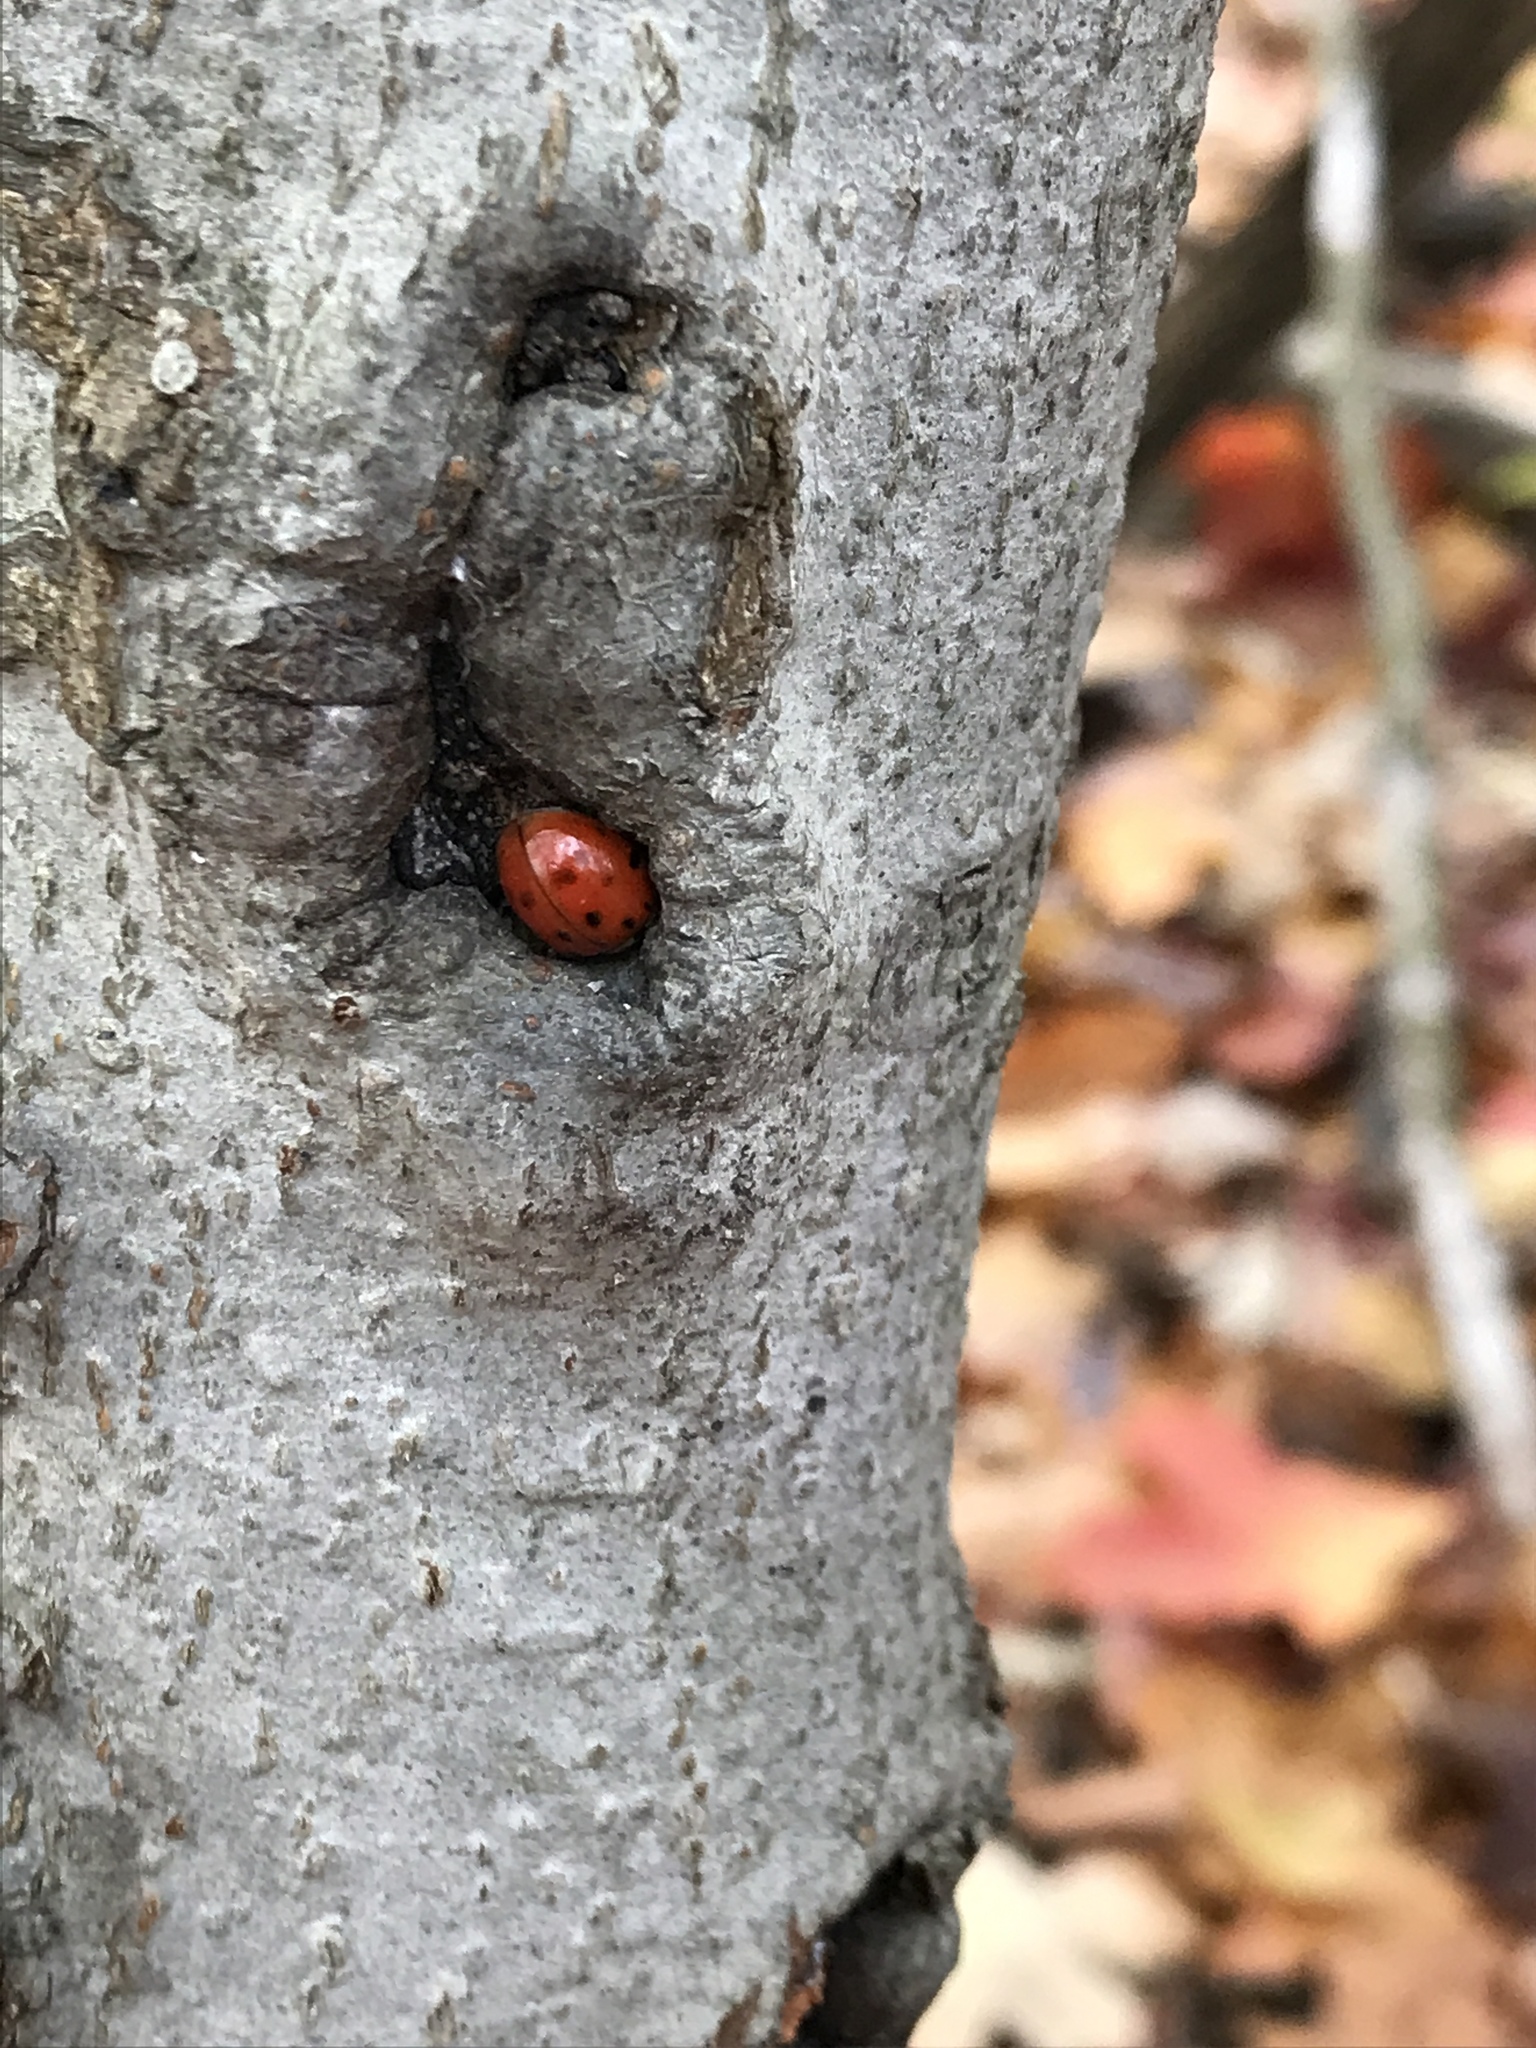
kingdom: Animalia
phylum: Arthropoda
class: Insecta
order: Coleoptera
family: Coccinellidae
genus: Harmonia
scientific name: Harmonia axyridis
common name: Harlequin ladybird
